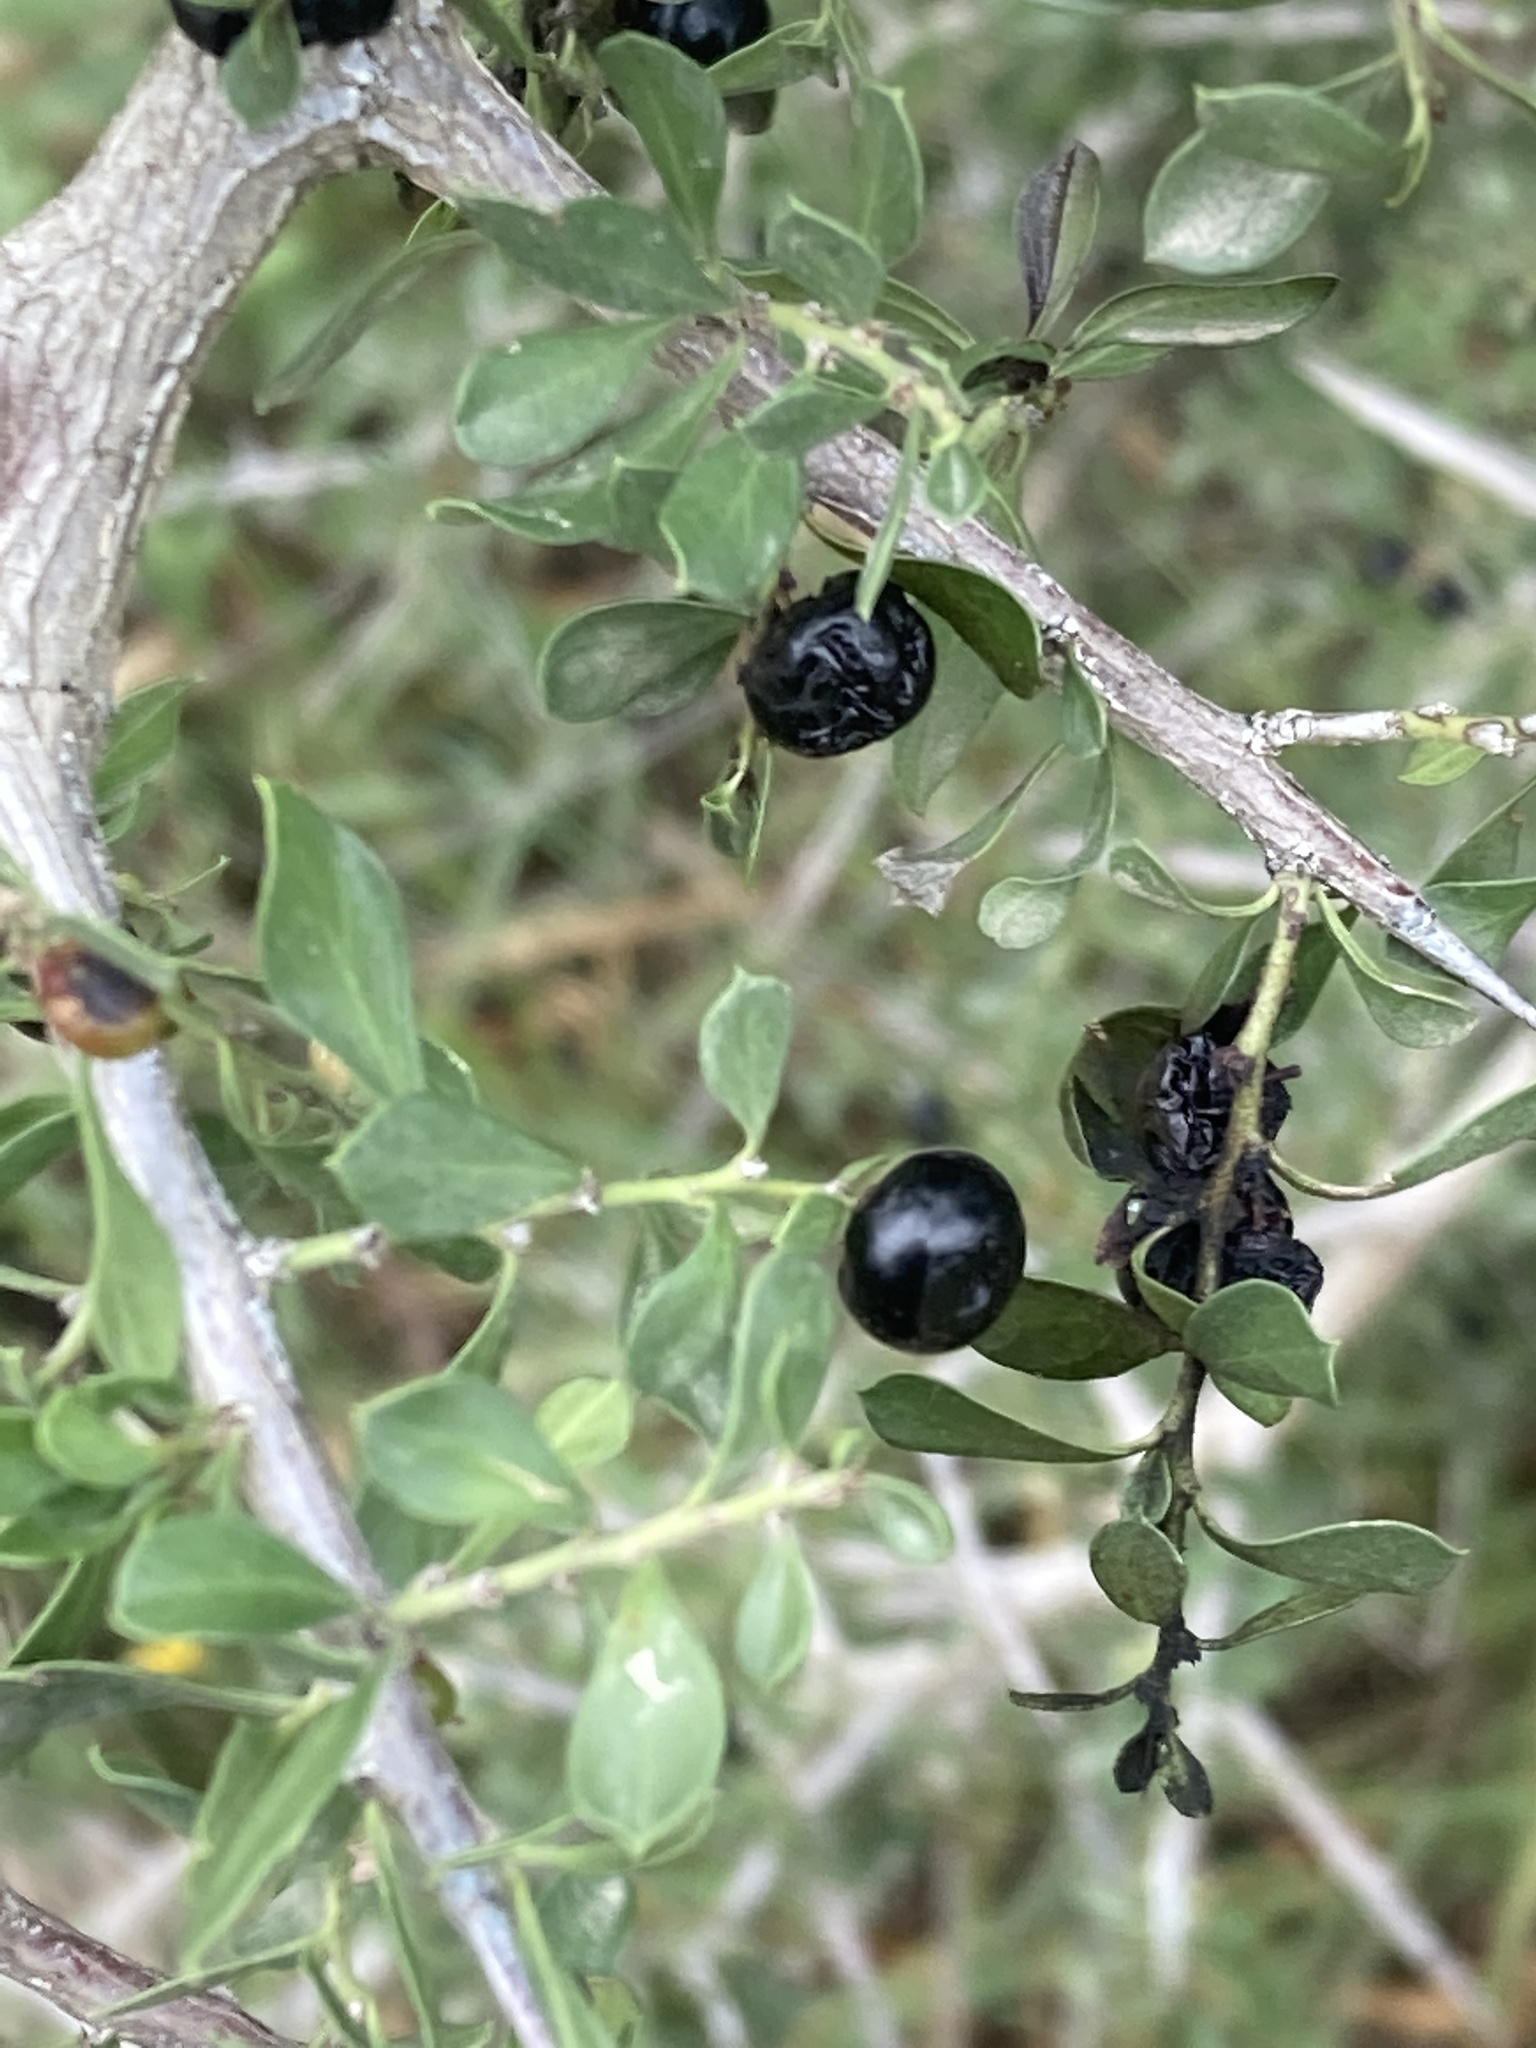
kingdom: Plantae
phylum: Tracheophyta
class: Magnoliopsida
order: Rosales
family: Rhamnaceae
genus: Condalia
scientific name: Condalia viridis
